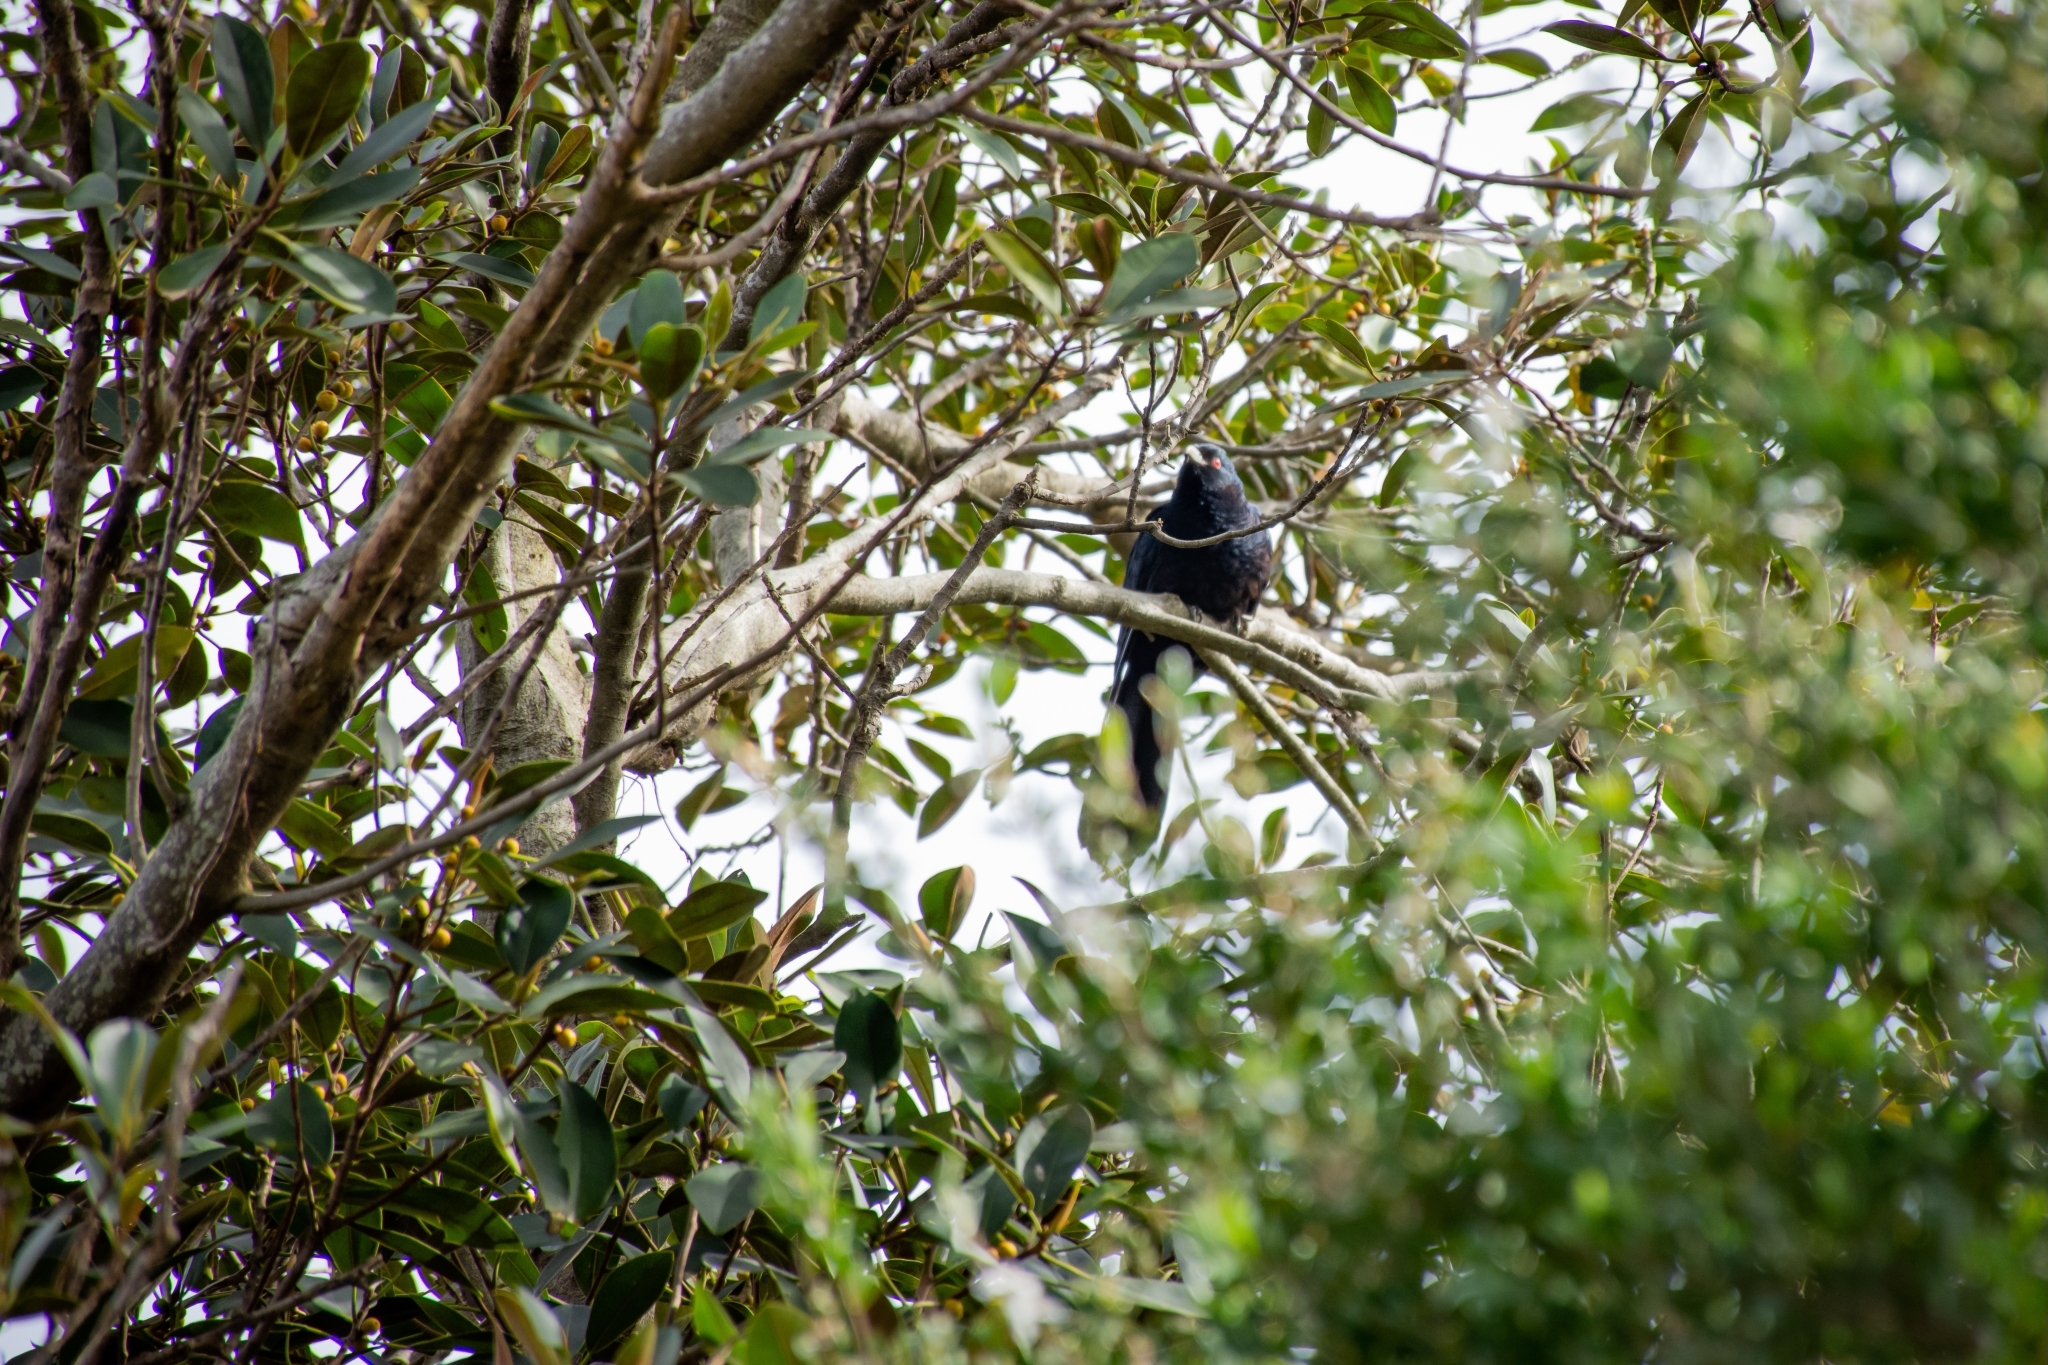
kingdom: Animalia
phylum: Chordata
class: Aves
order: Cuculiformes
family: Cuculidae
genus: Eudynamys
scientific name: Eudynamys orientalis
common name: Pacific koel
